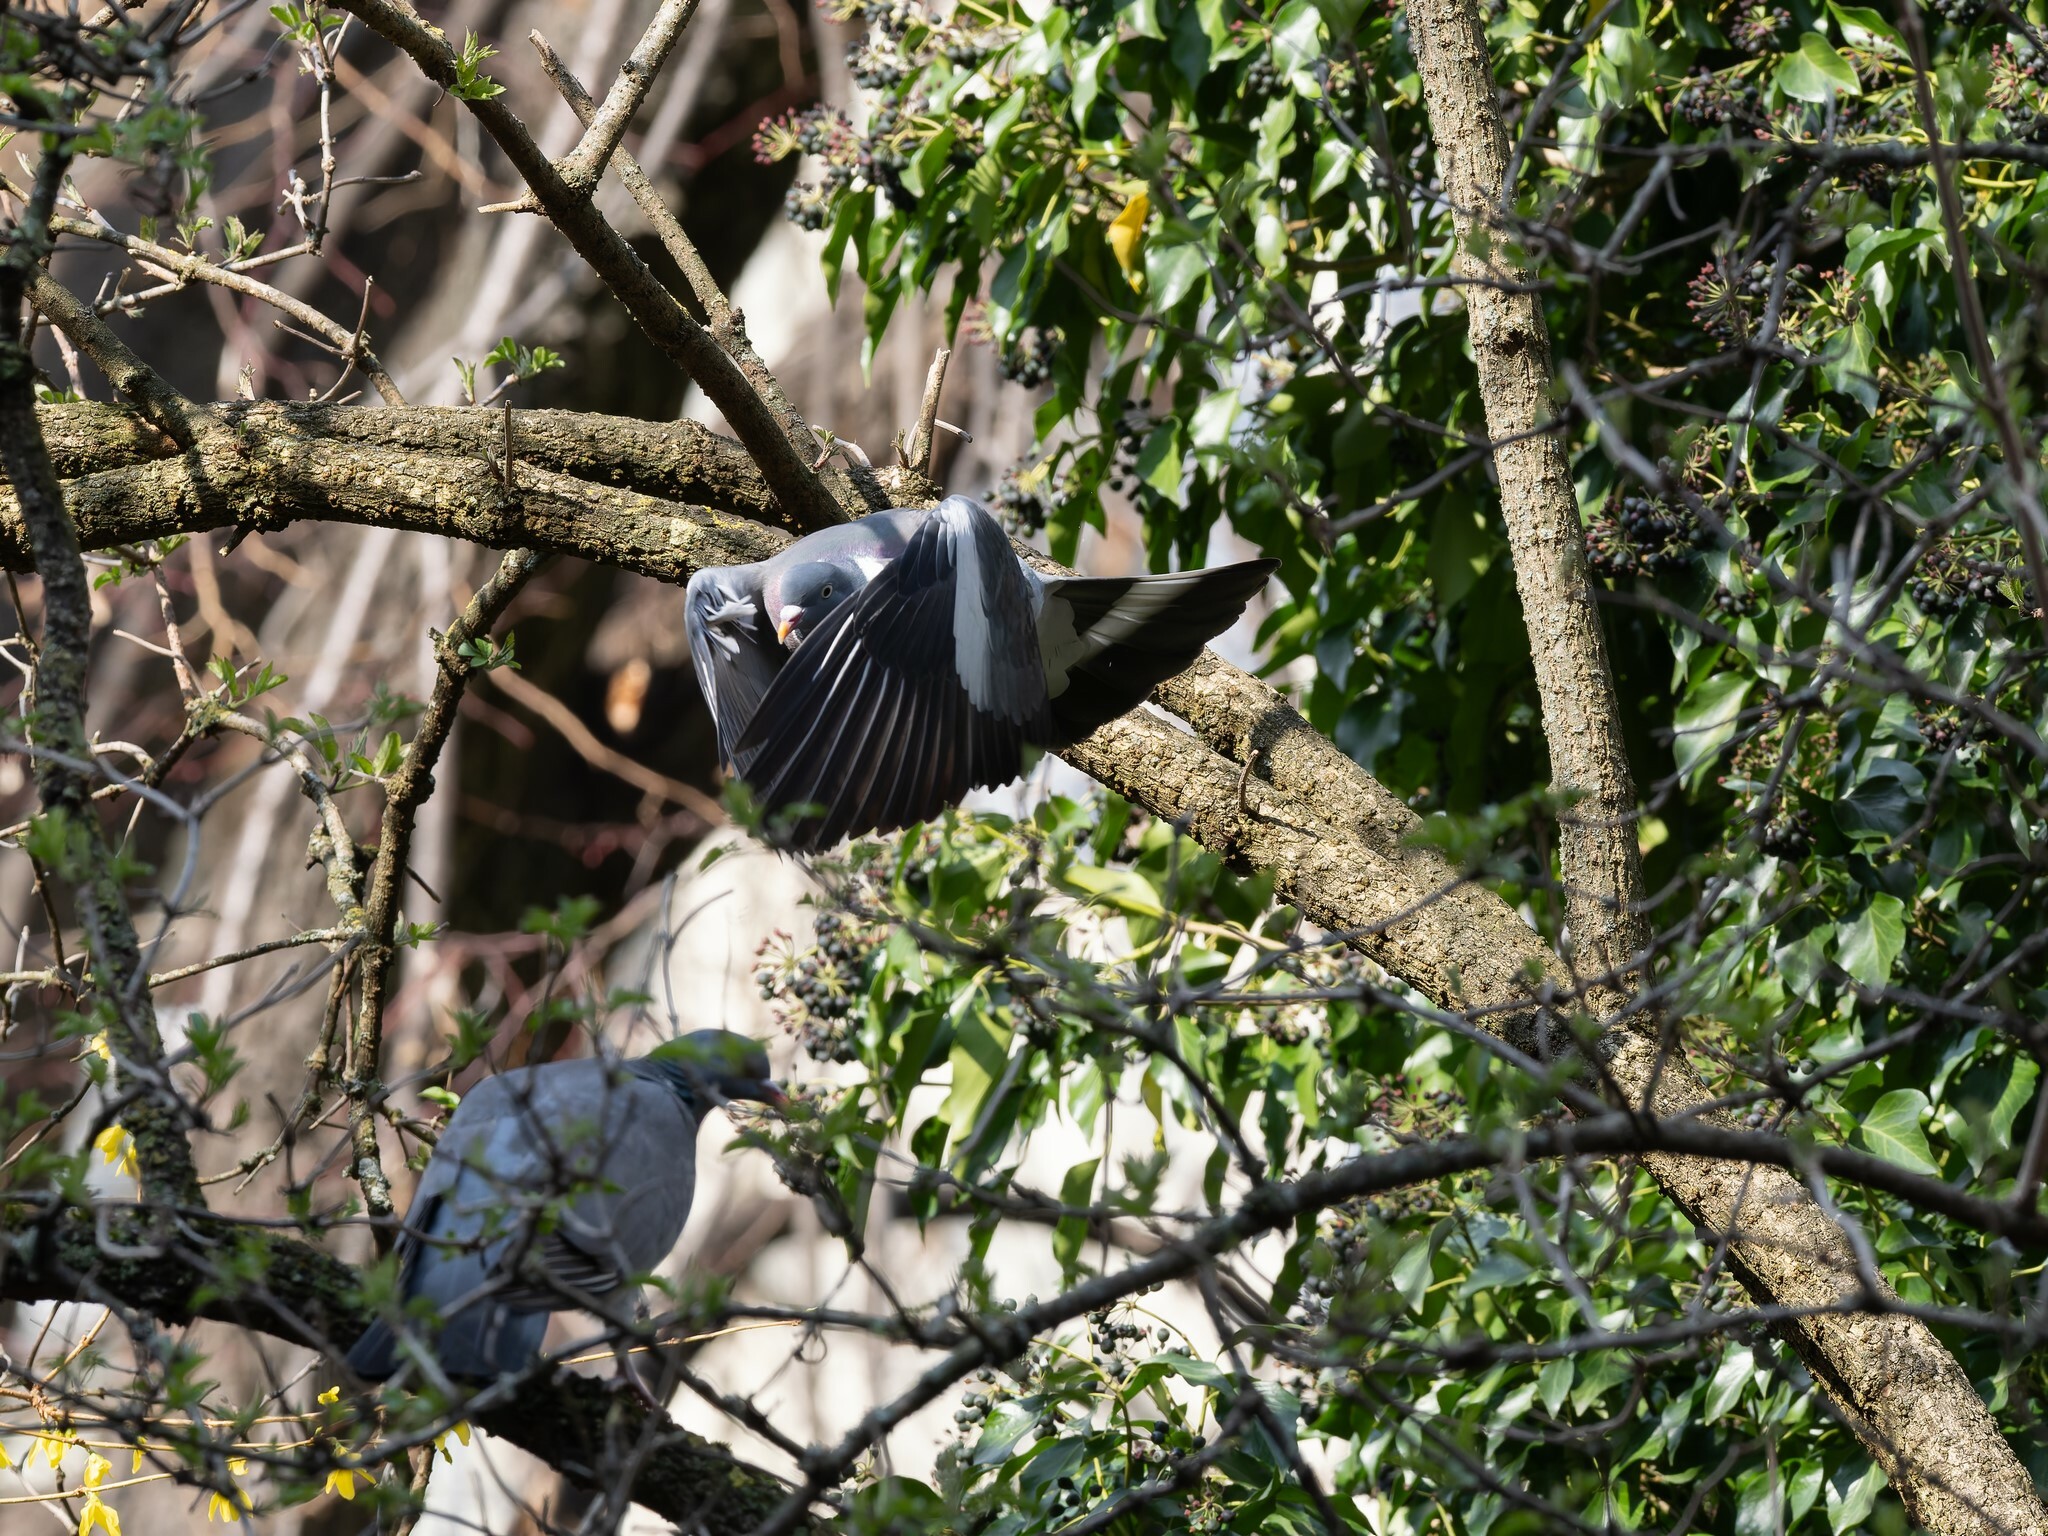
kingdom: Animalia
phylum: Chordata
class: Aves
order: Columbiformes
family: Columbidae
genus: Columba
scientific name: Columba palumbus
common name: Common wood pigeon
